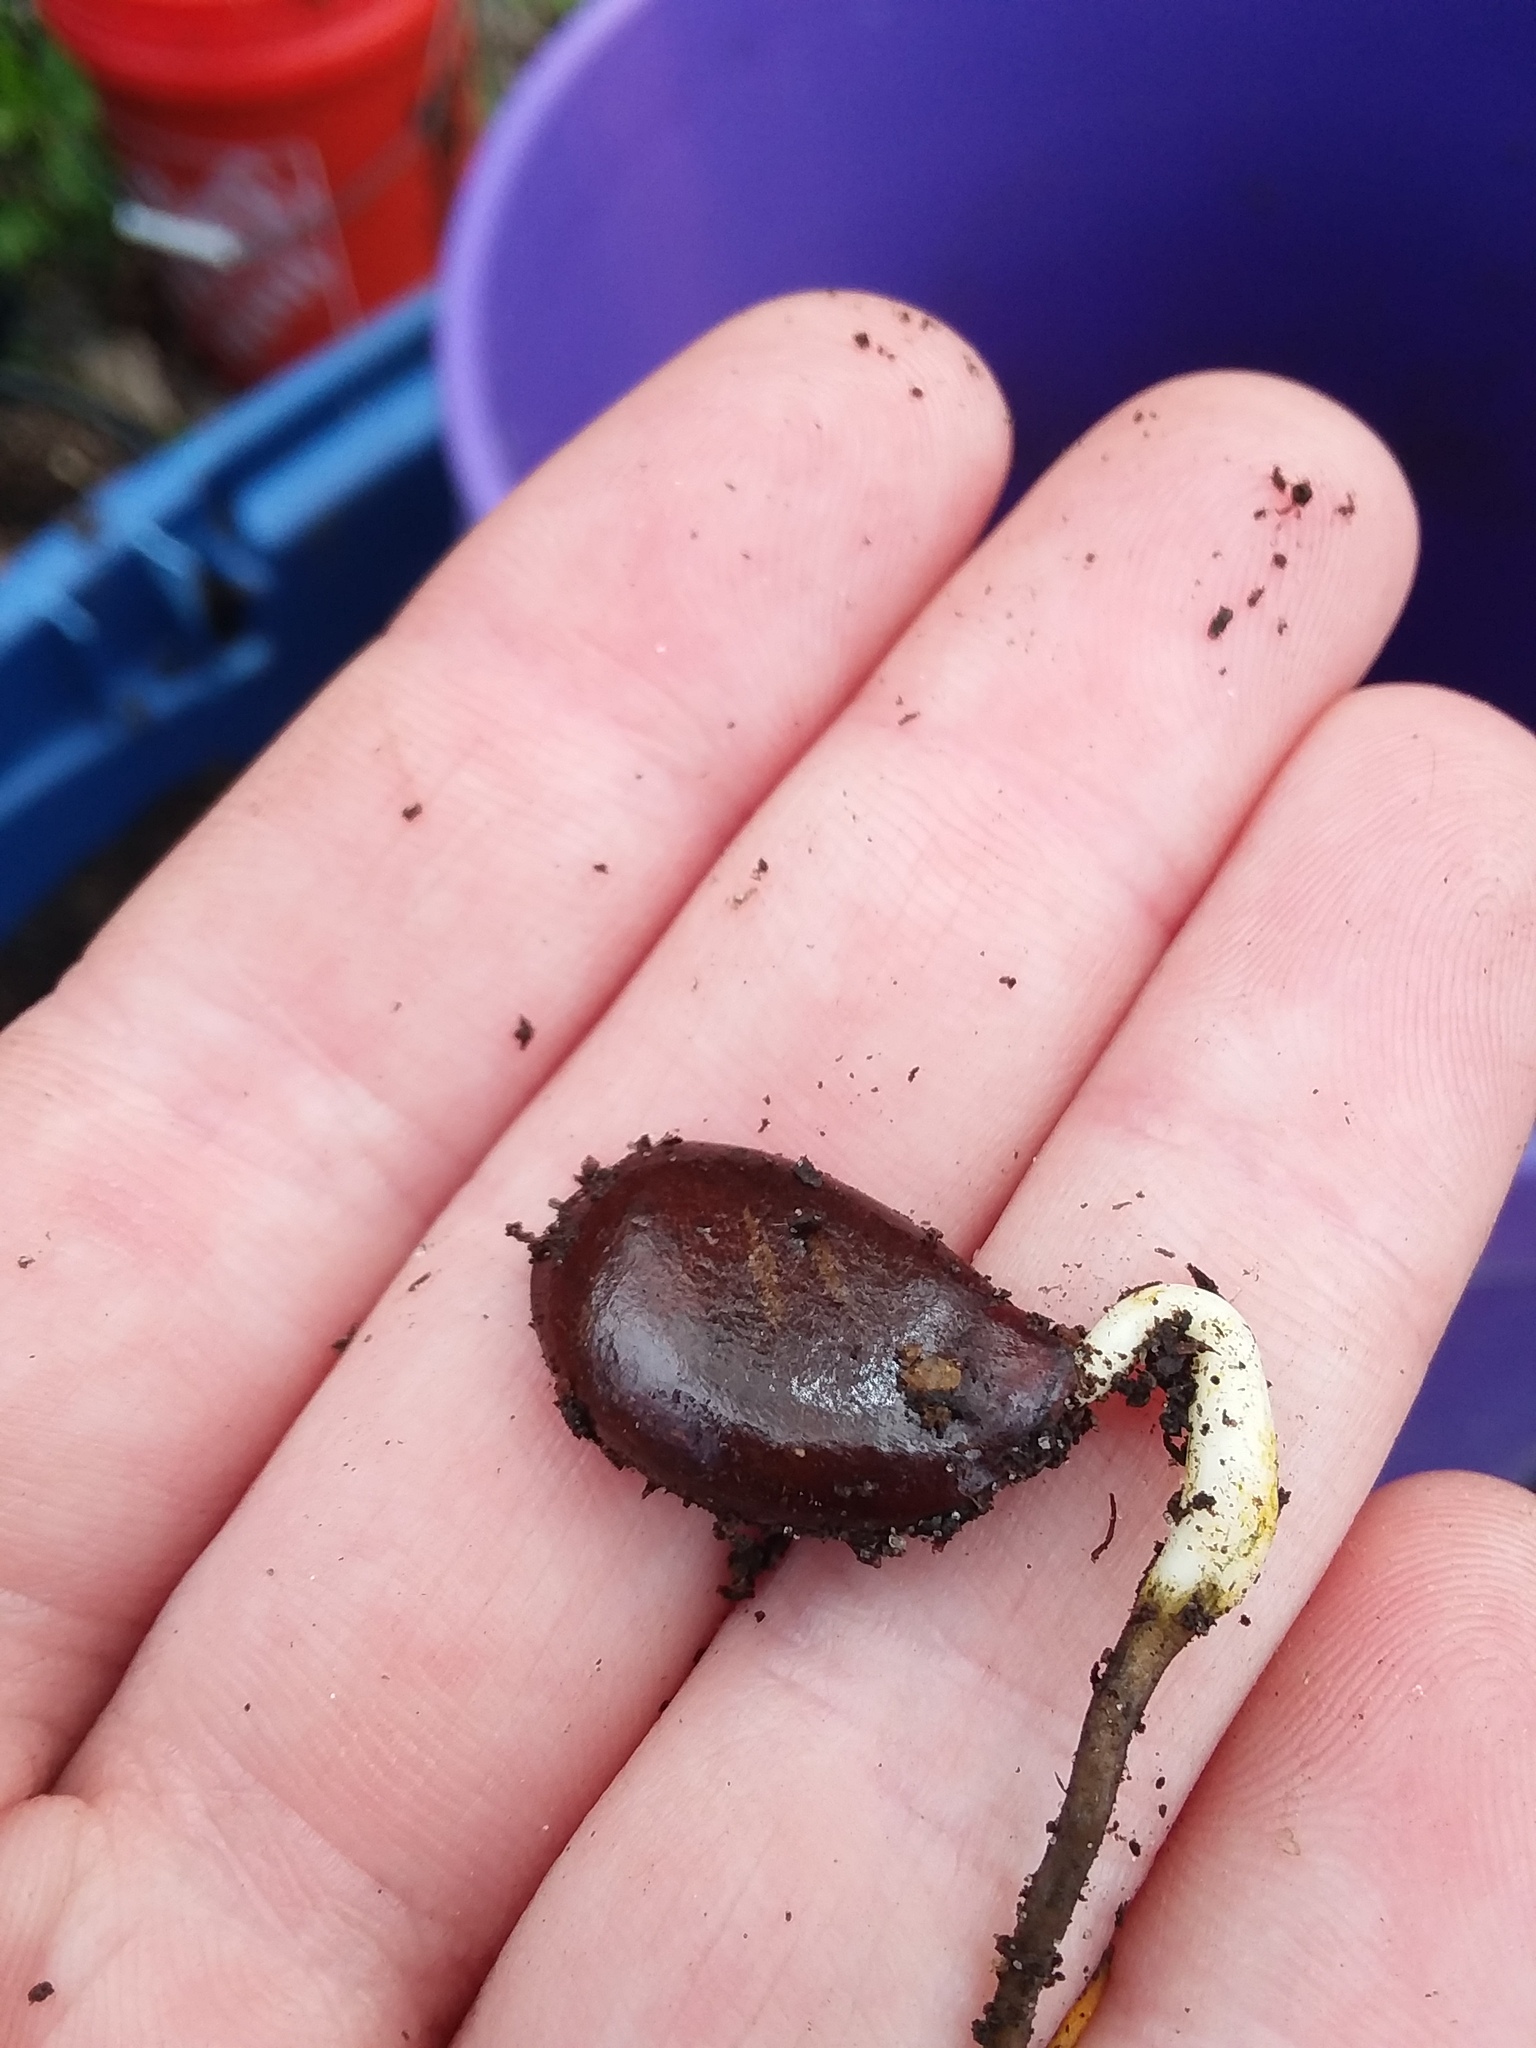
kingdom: Plantae
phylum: Tracheophyta
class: Magnoliopsida
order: Ericales
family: Ebenaceae
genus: Diospyros
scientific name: Diospyros virginiana
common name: Persimmon
